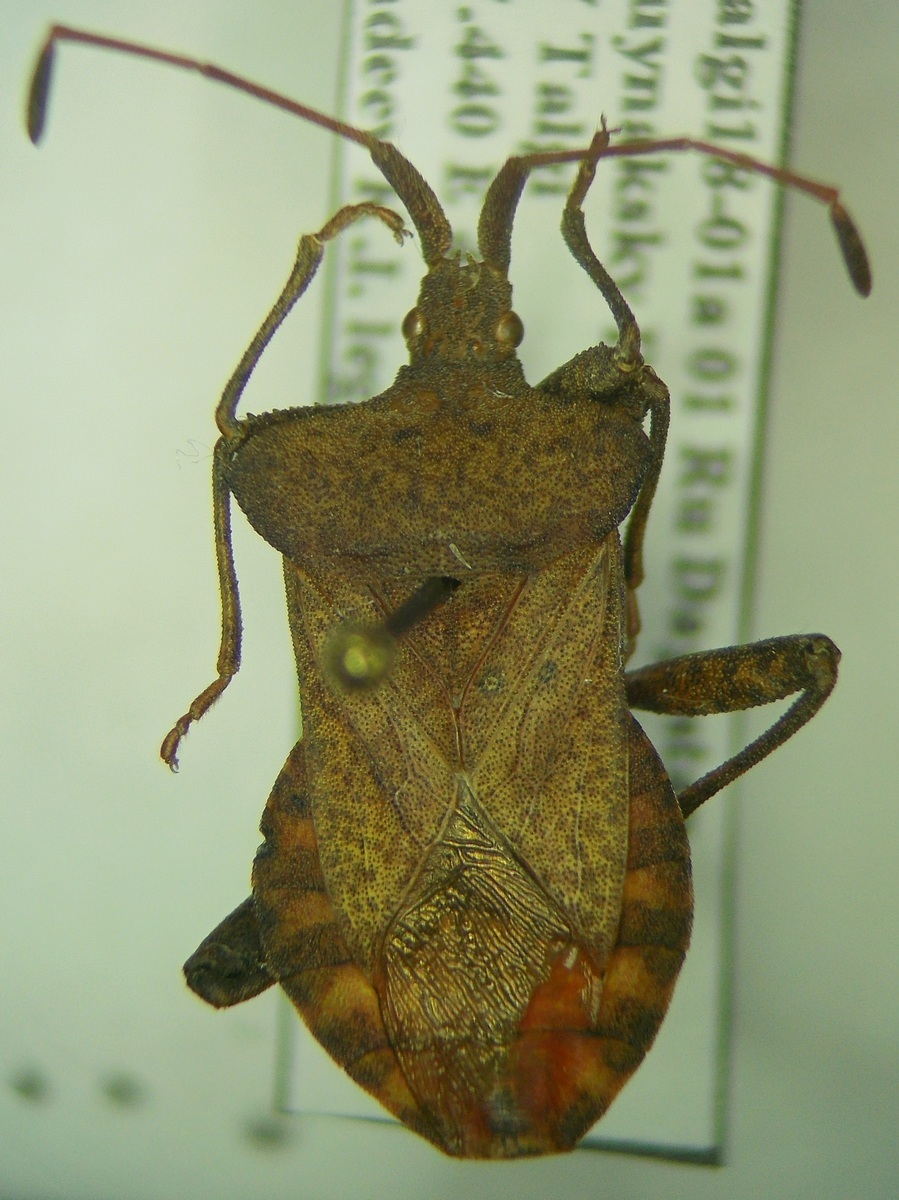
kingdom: Animalia
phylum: Arthropoda
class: Insecta
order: Hemiptera
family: Coreidae
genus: Coreus
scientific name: Coreus marginatus
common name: Dock bug
